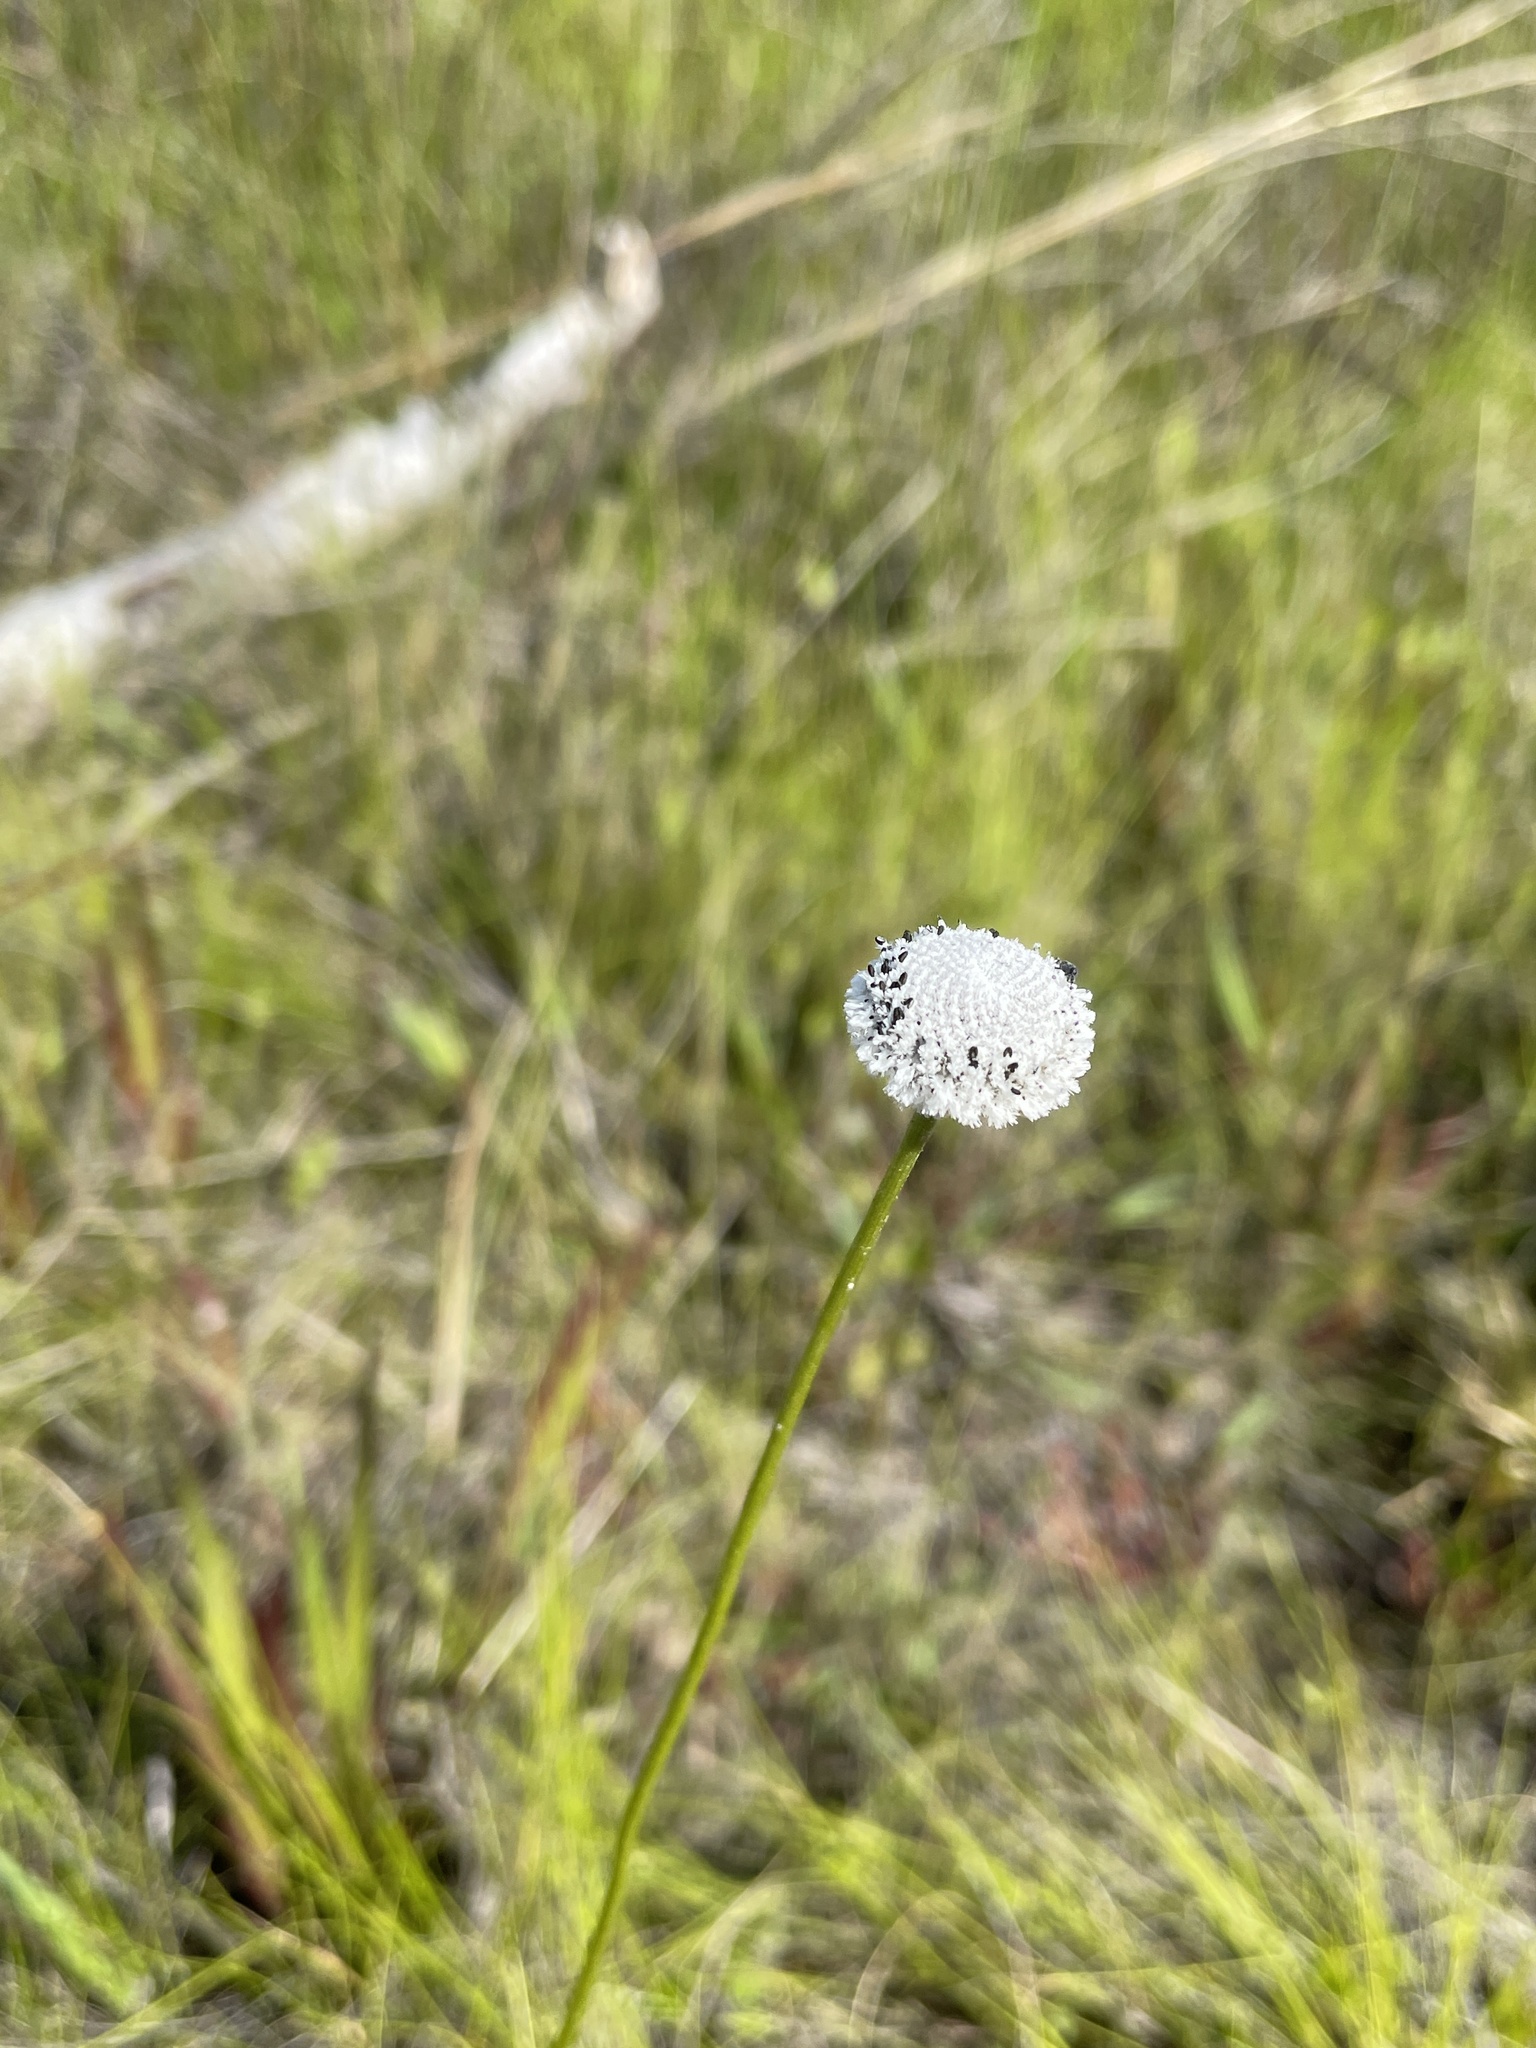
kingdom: Plantae
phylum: Tracheophyta
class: Liliopsida
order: Poales
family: Eriocaulaceae
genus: Eriocaulon
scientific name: Eriocaulon compressum
